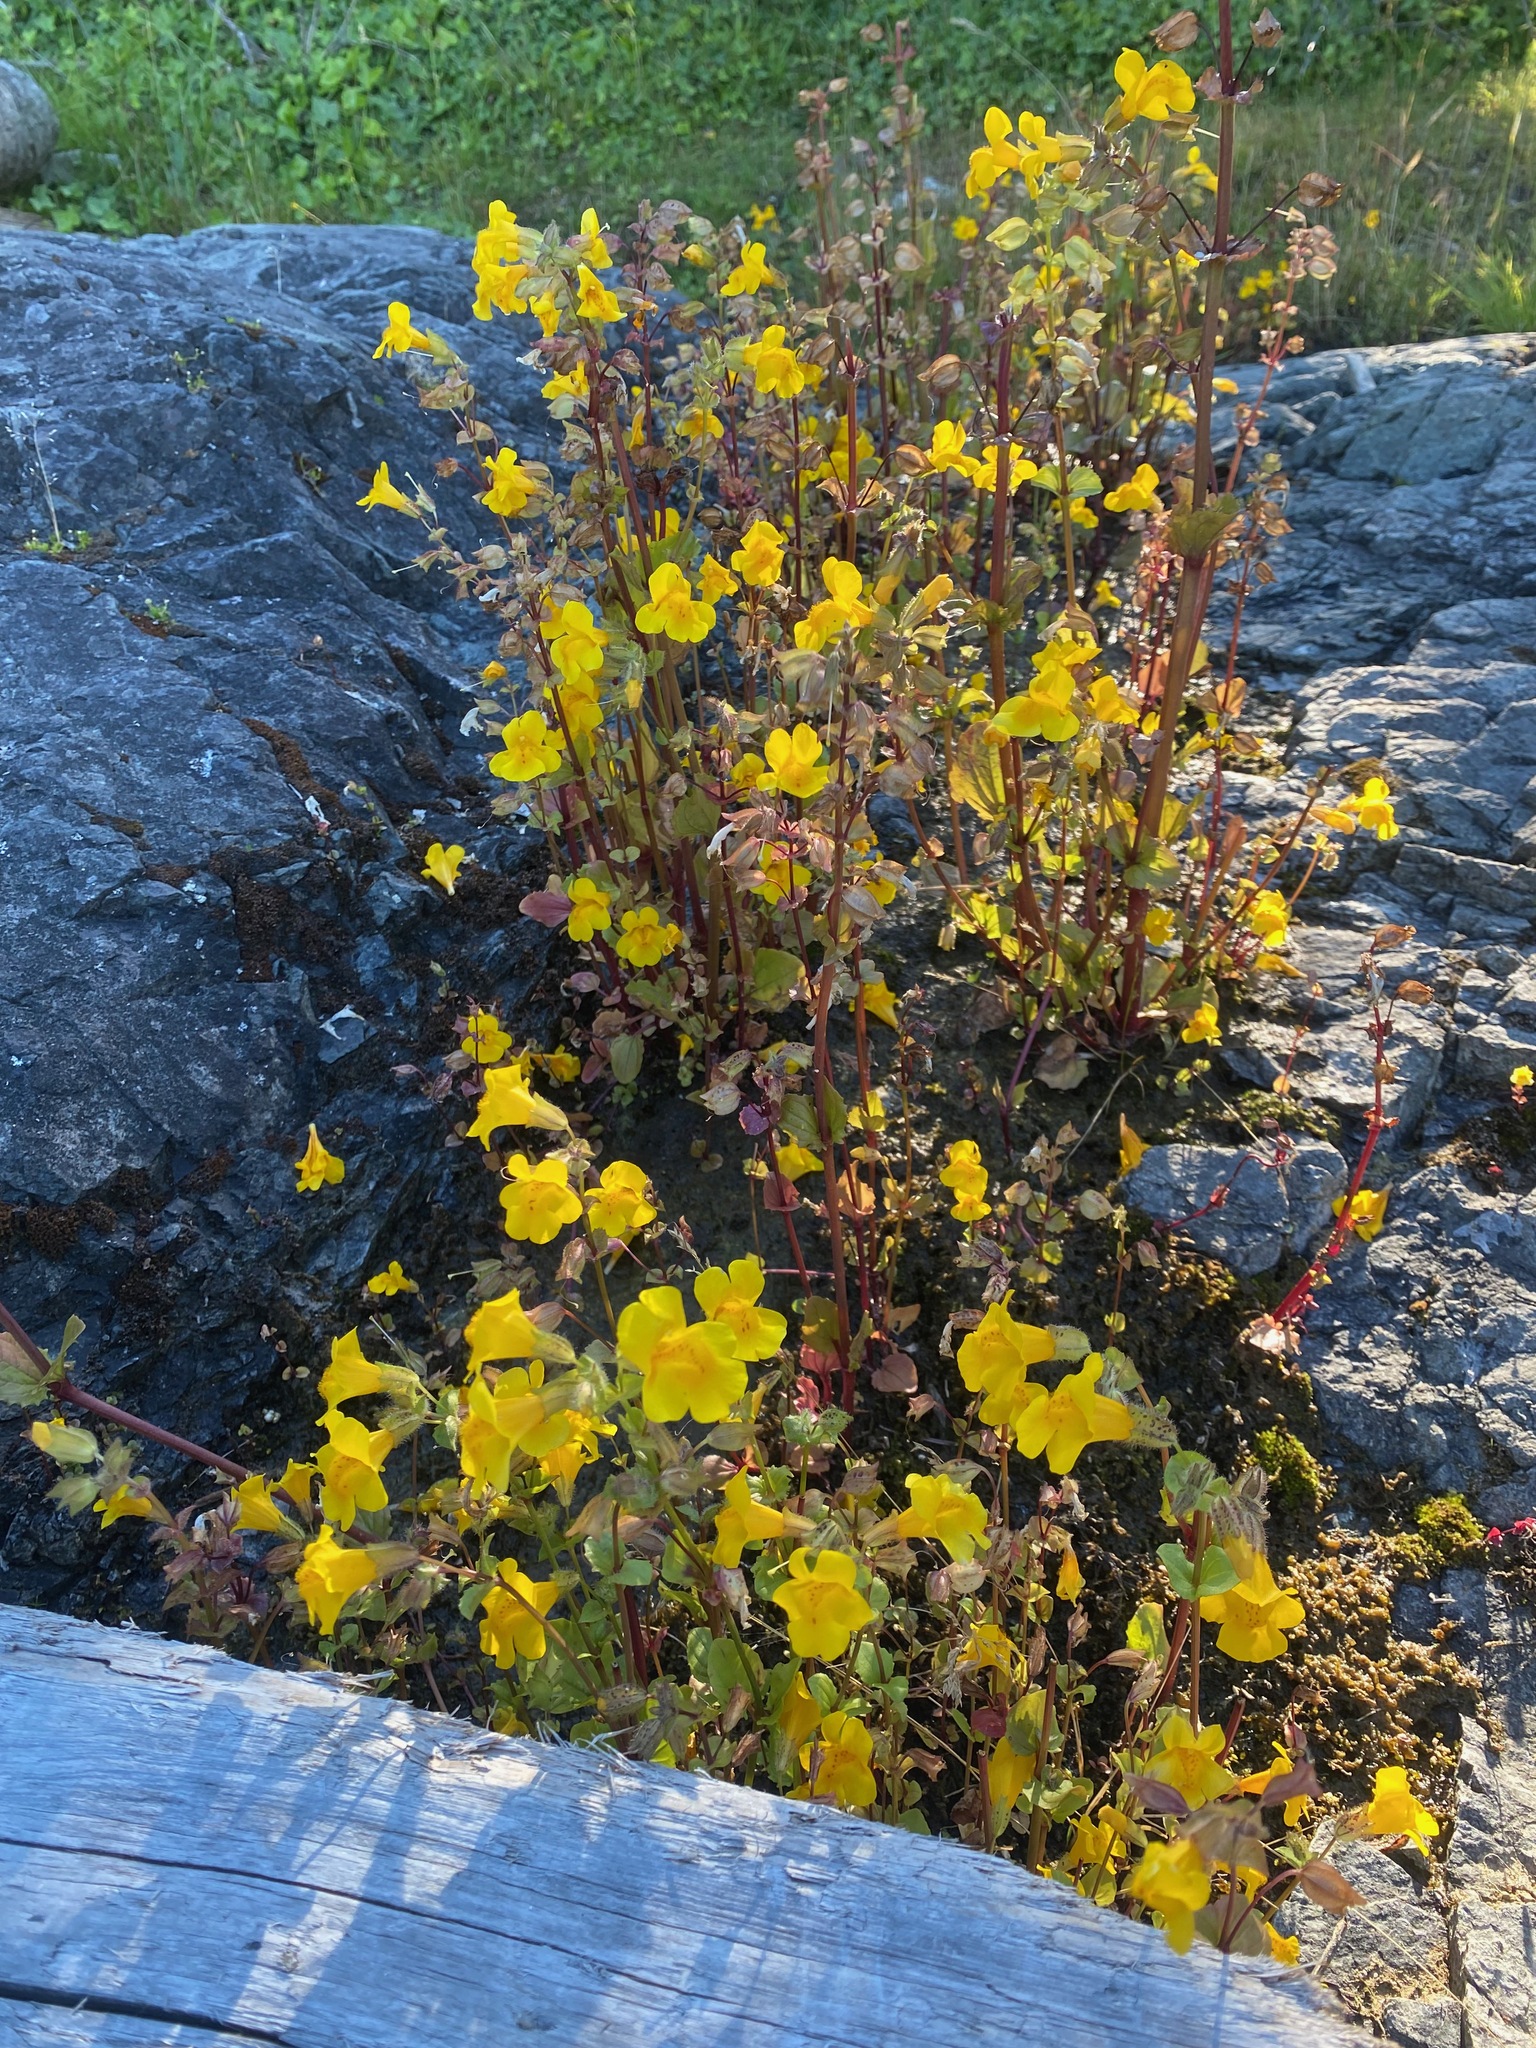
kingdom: Plantae
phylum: Tracheophyta
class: Magnoliopsida
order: Lamiales
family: Phrymaceae
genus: Erythranthe
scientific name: Erythranthe guttata
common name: Monkeyflower
